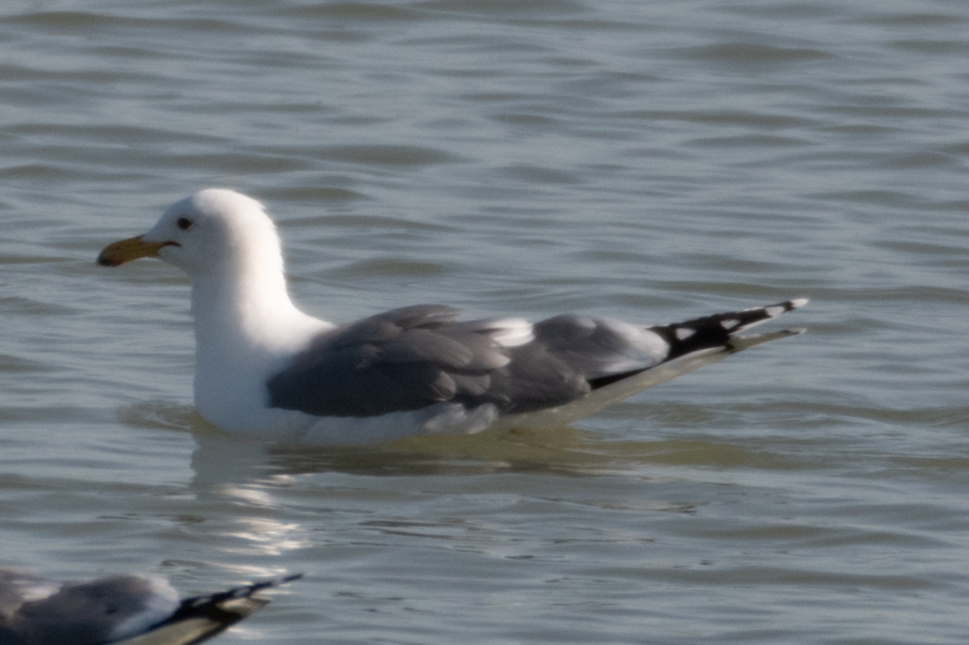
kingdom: Animalia
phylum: Chordata
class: Aves
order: Charadriiformes
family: Laridae
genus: Larus
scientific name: Larus californicus
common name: California gull
